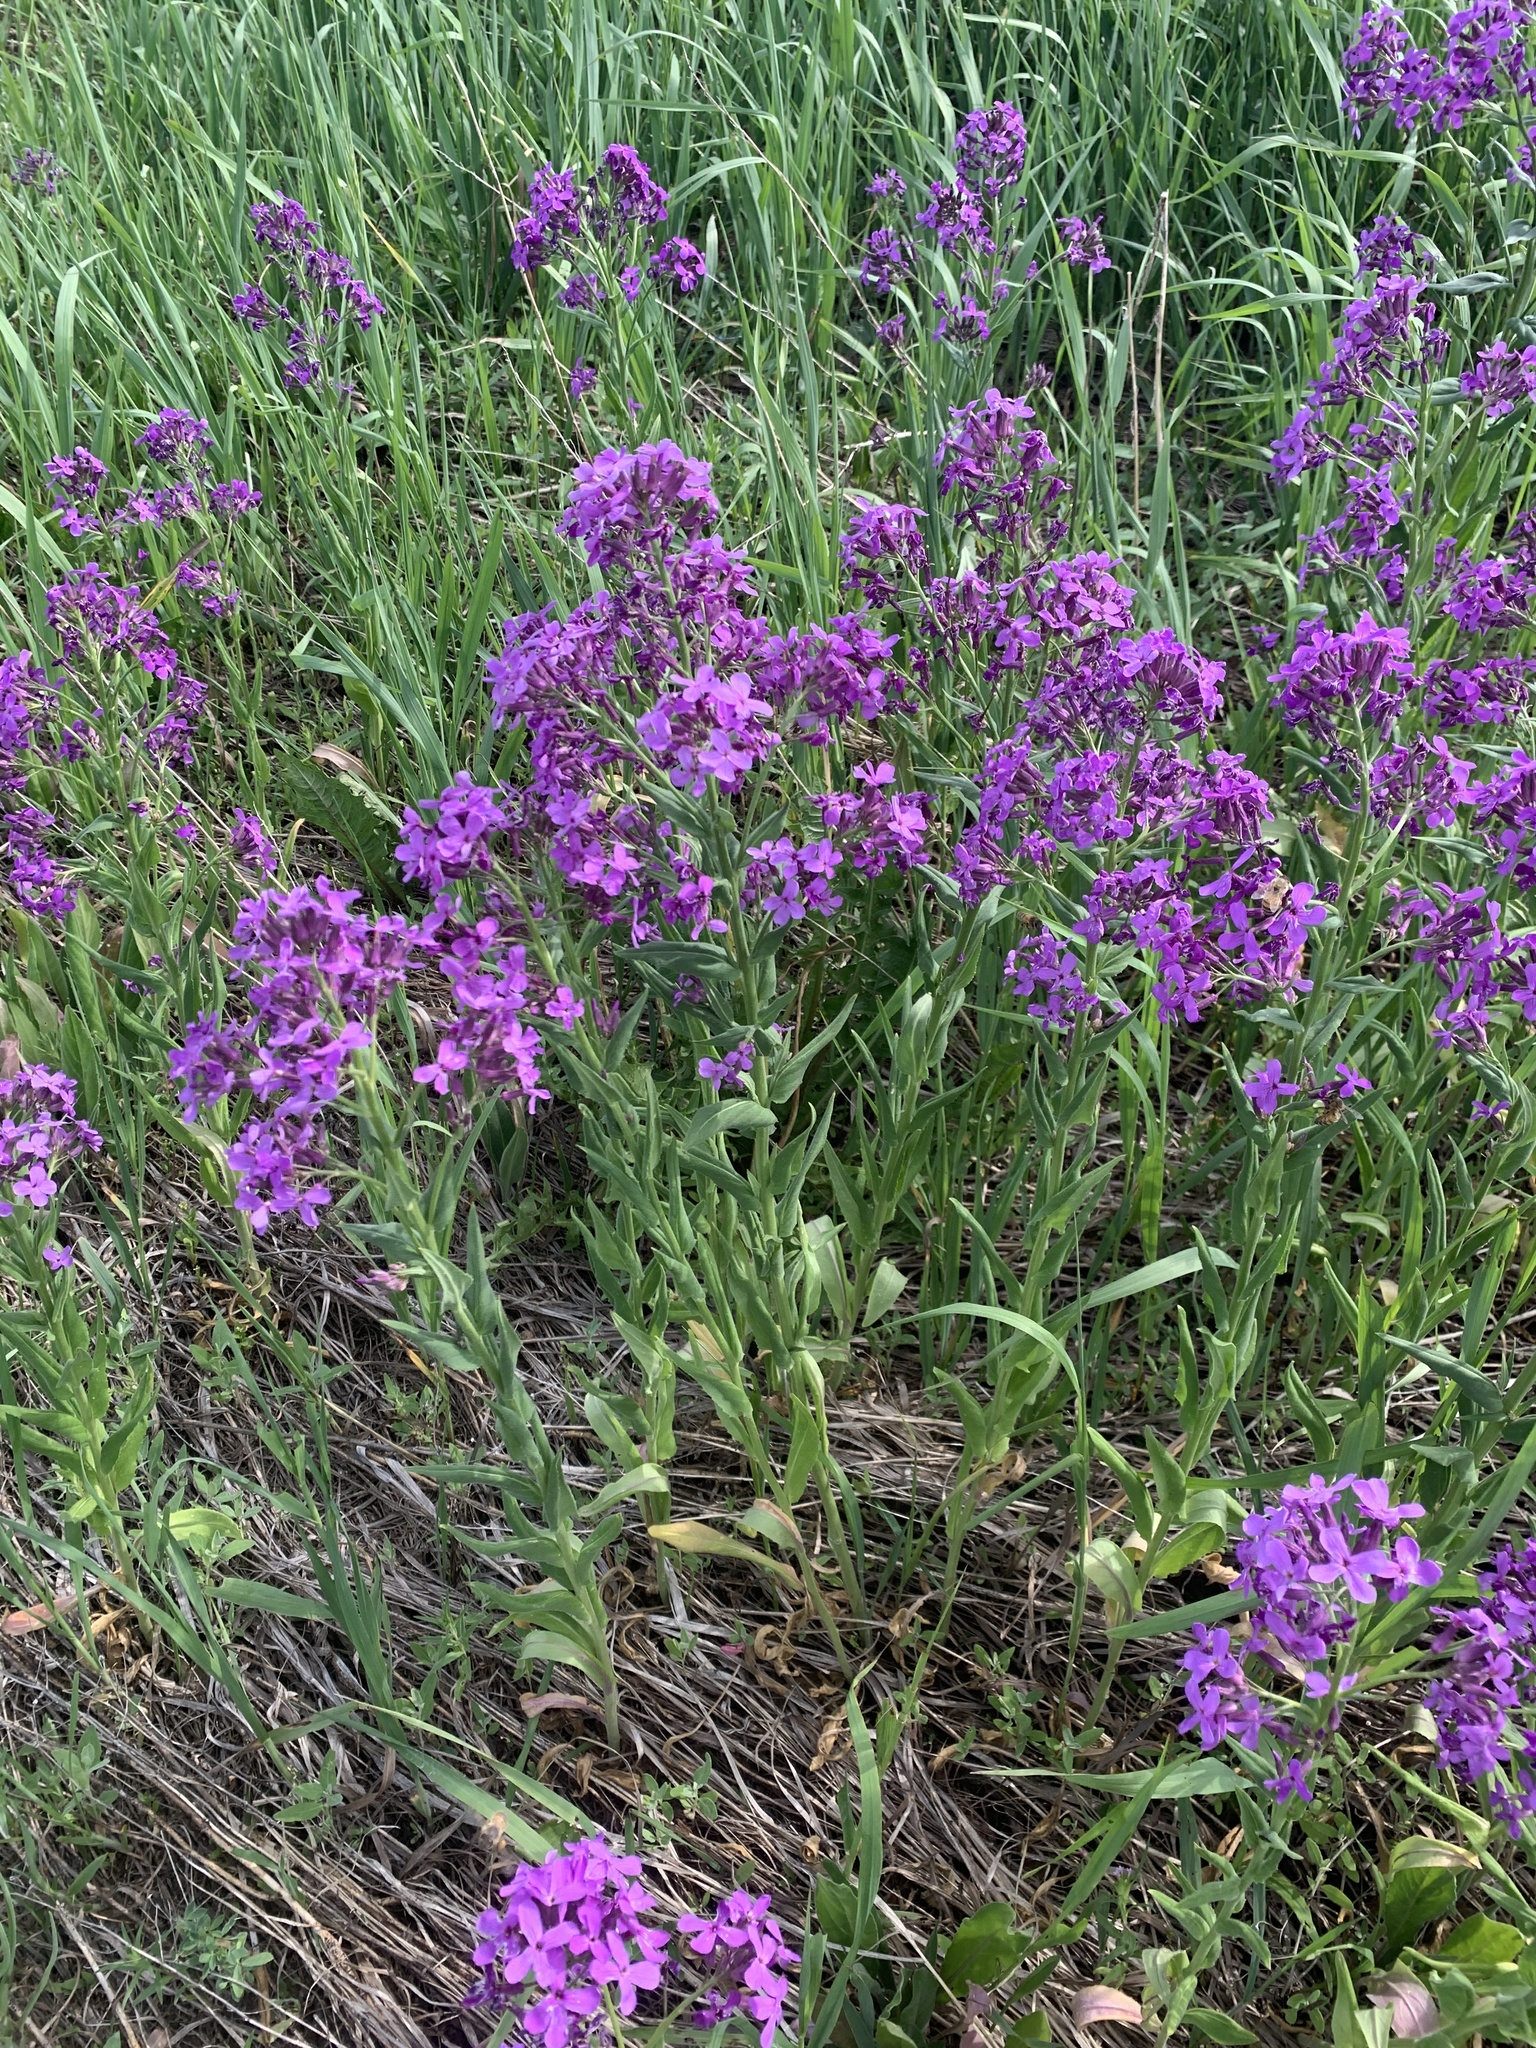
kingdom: Plantae
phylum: Tracheophyta
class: Magnoliopsida
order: Brassicales
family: Brassicaceae
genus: Hesperis
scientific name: Hesperis matronalis
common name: Dame's-violet
